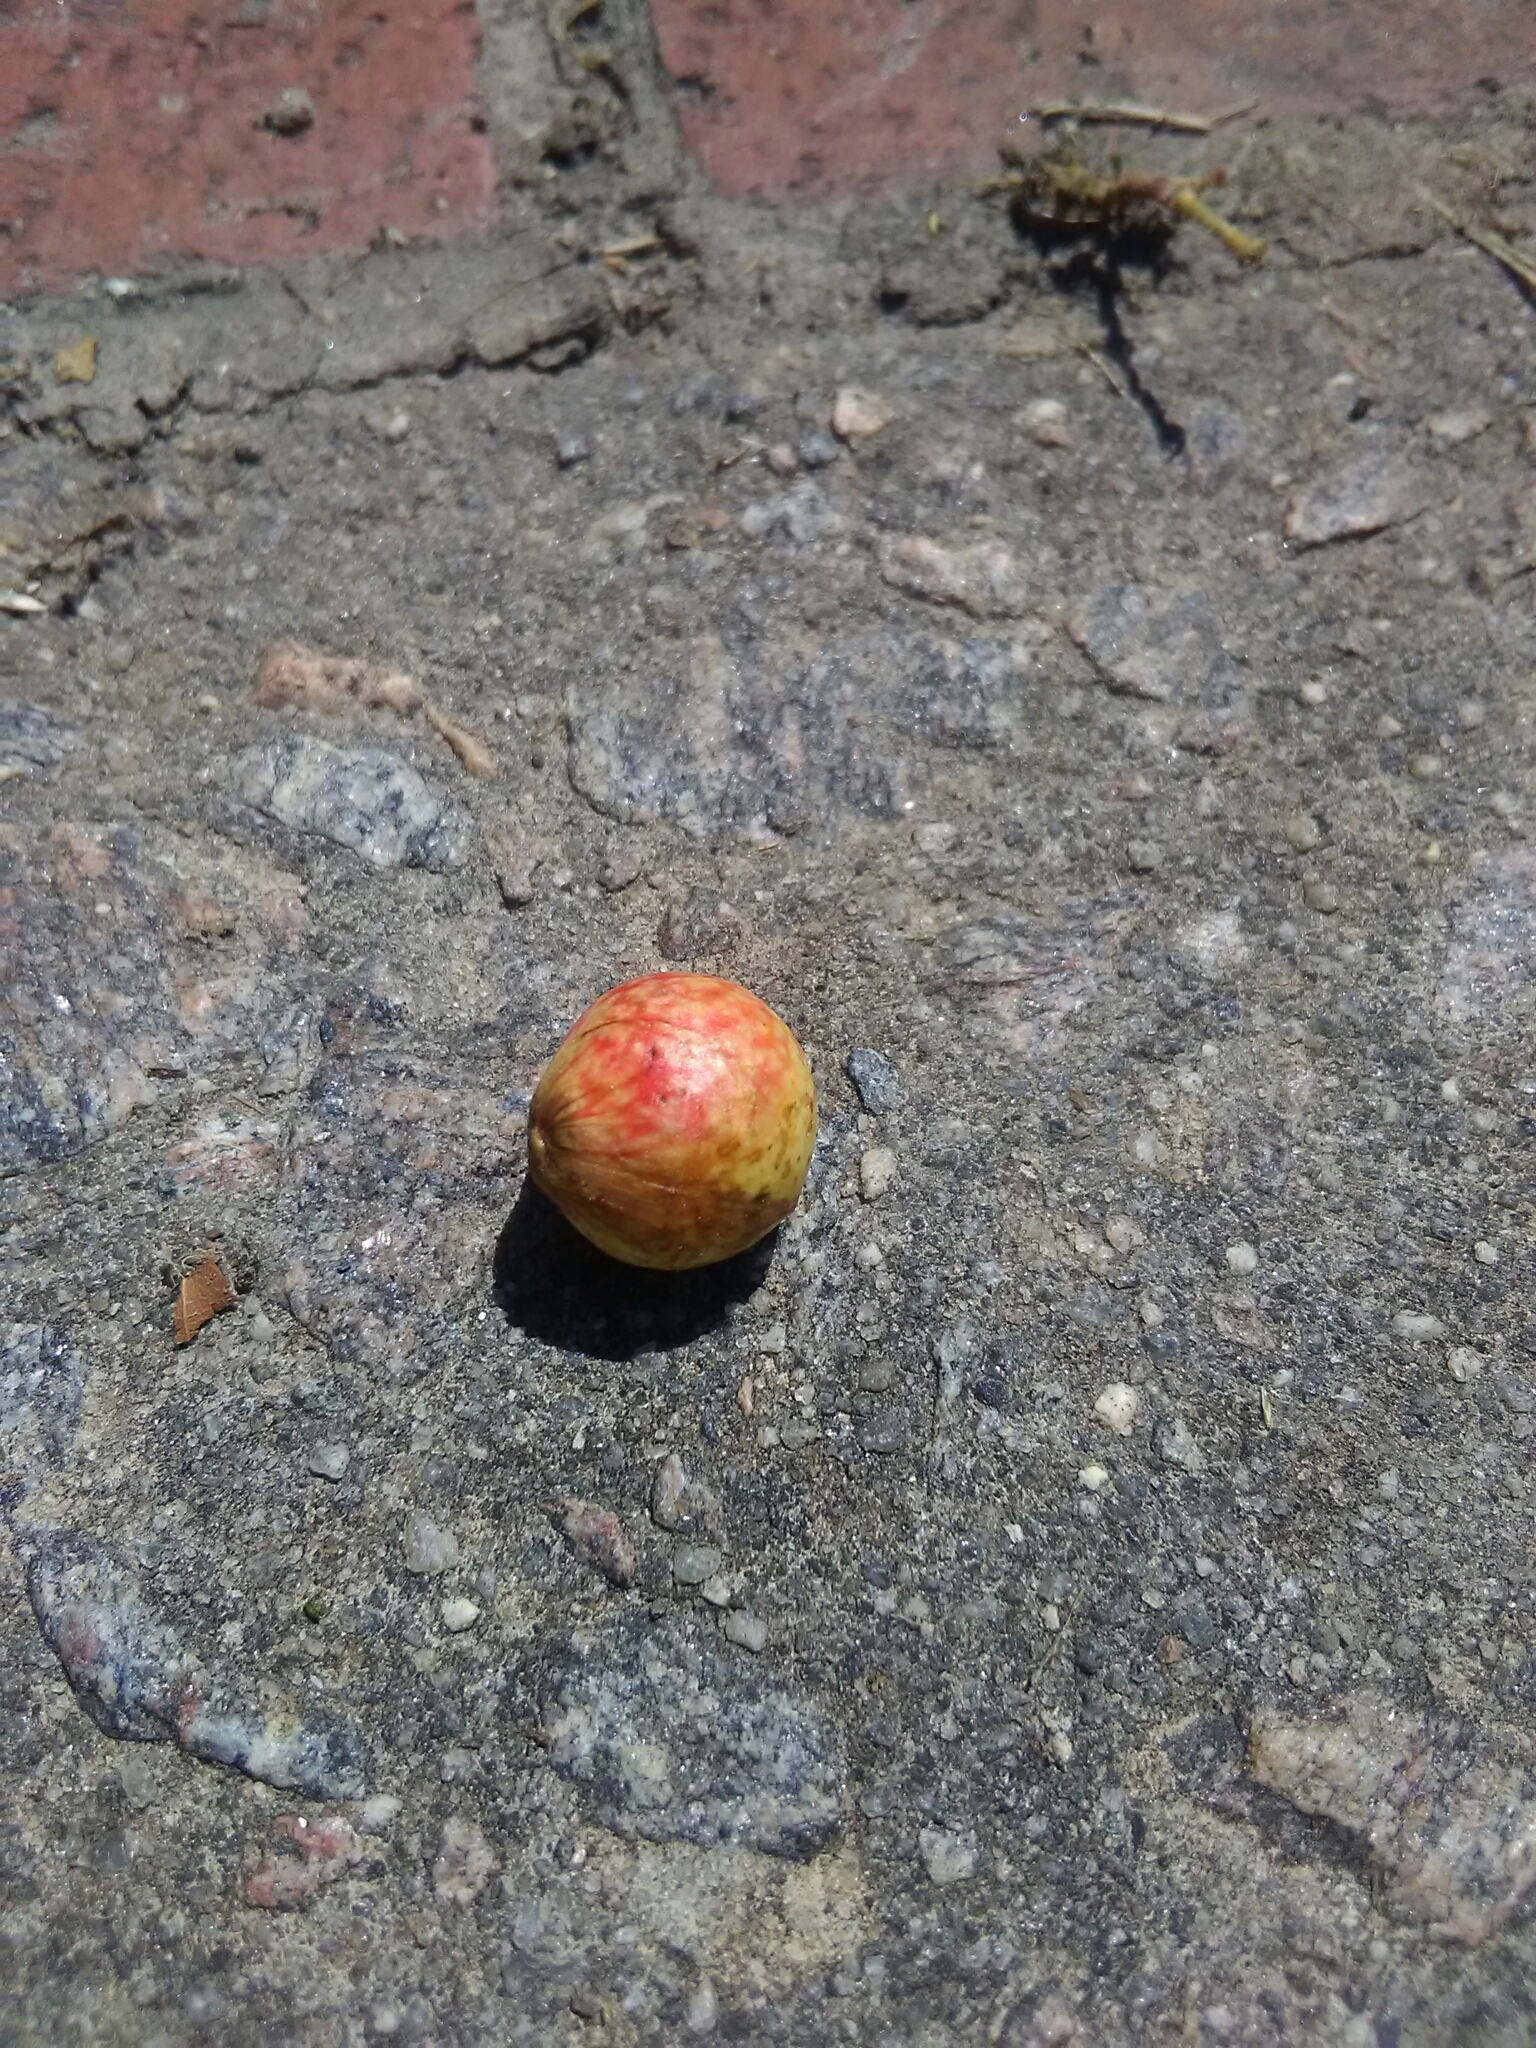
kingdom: Animalia
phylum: Arthropoda
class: Insecta
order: Hymenoptera
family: Cynipidae
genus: Amphibolips
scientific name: Amphibolips
